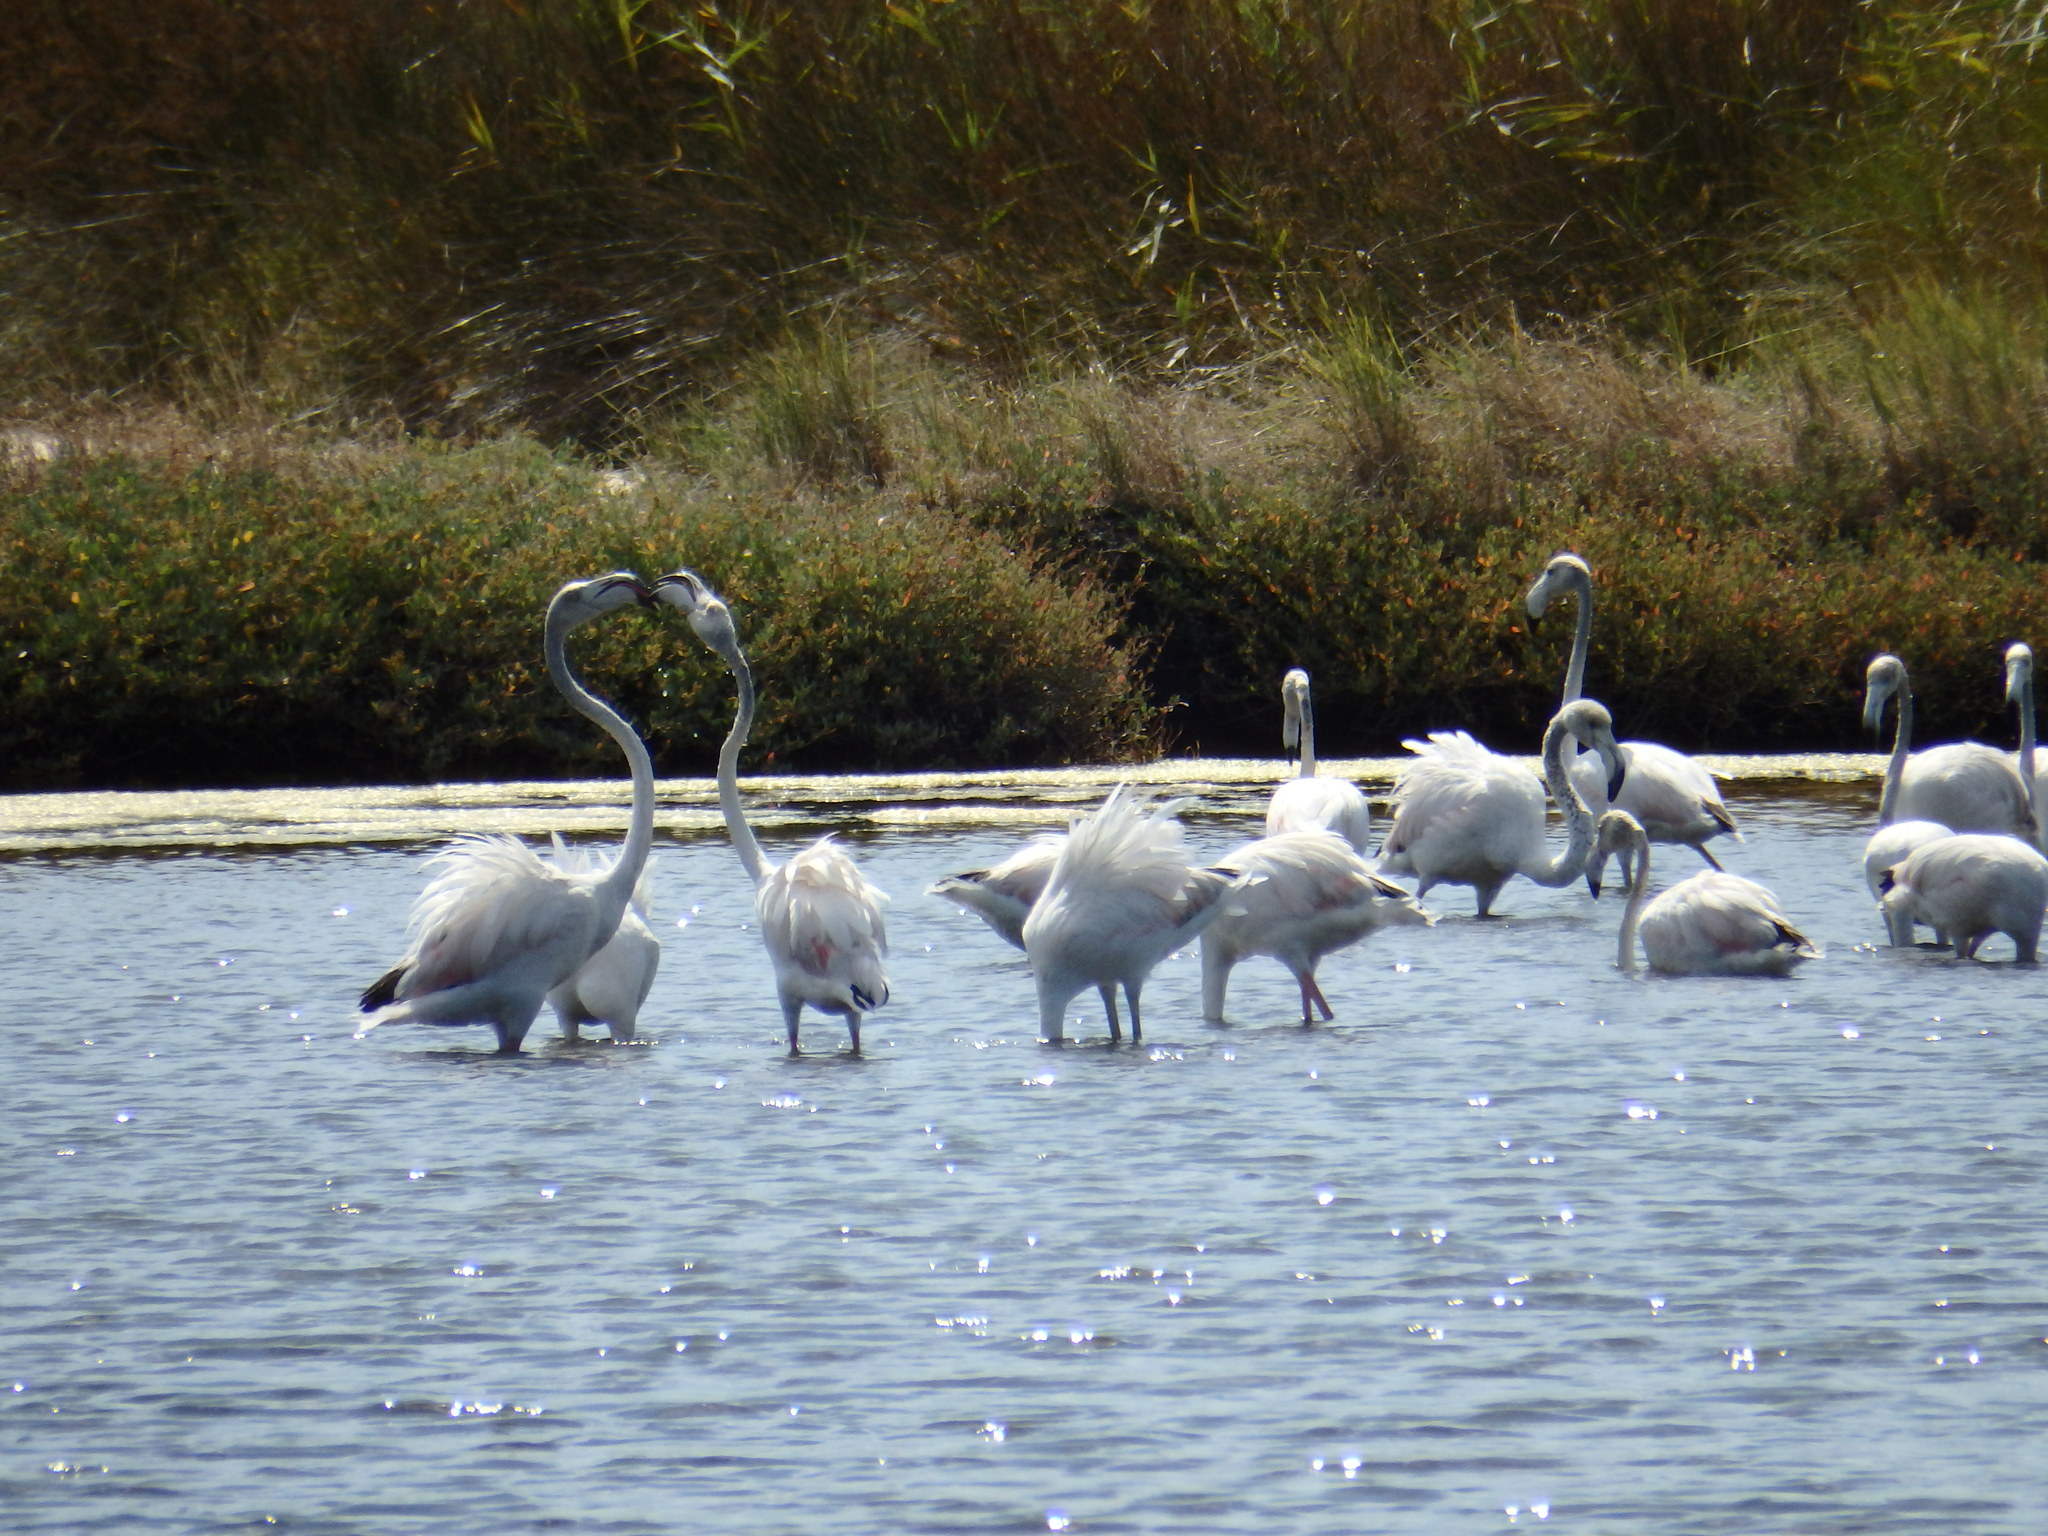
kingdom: Animalia
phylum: Chordata
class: Aves
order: Phoenicopteriformes
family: Phoenicopteridae
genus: Phoenicopterus
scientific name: Phoenicopterus roseus
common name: Greater flamingo
